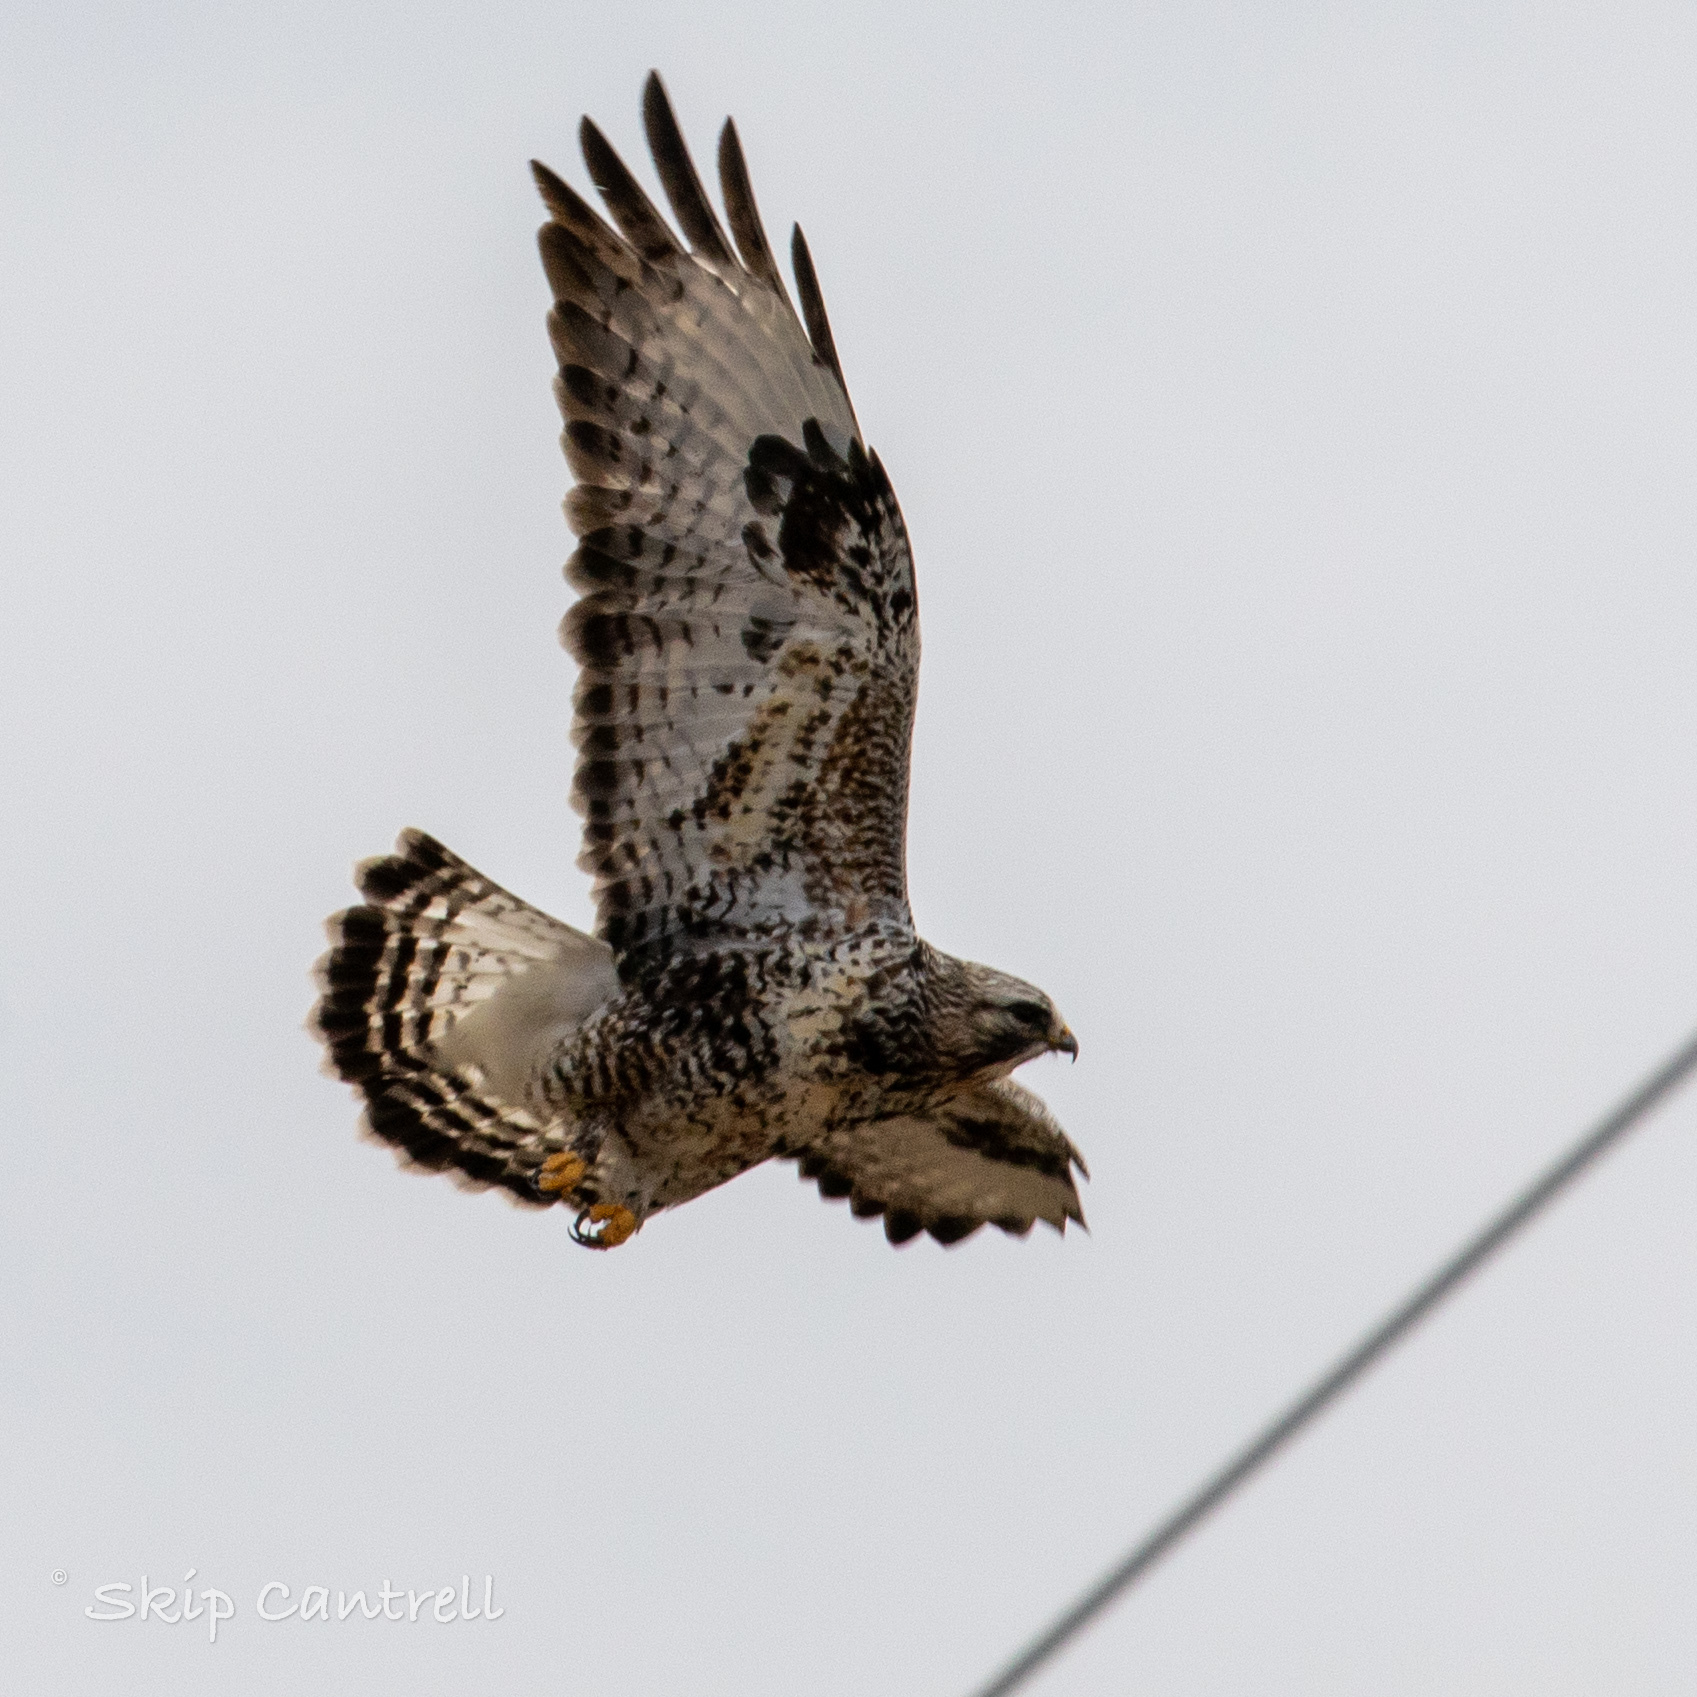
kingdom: Animalia
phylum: Chordata
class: Aves
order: Accipitriformes
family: Accipitridae
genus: Buteo
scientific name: Buteo lagopus
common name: Rough-legged buzzard
